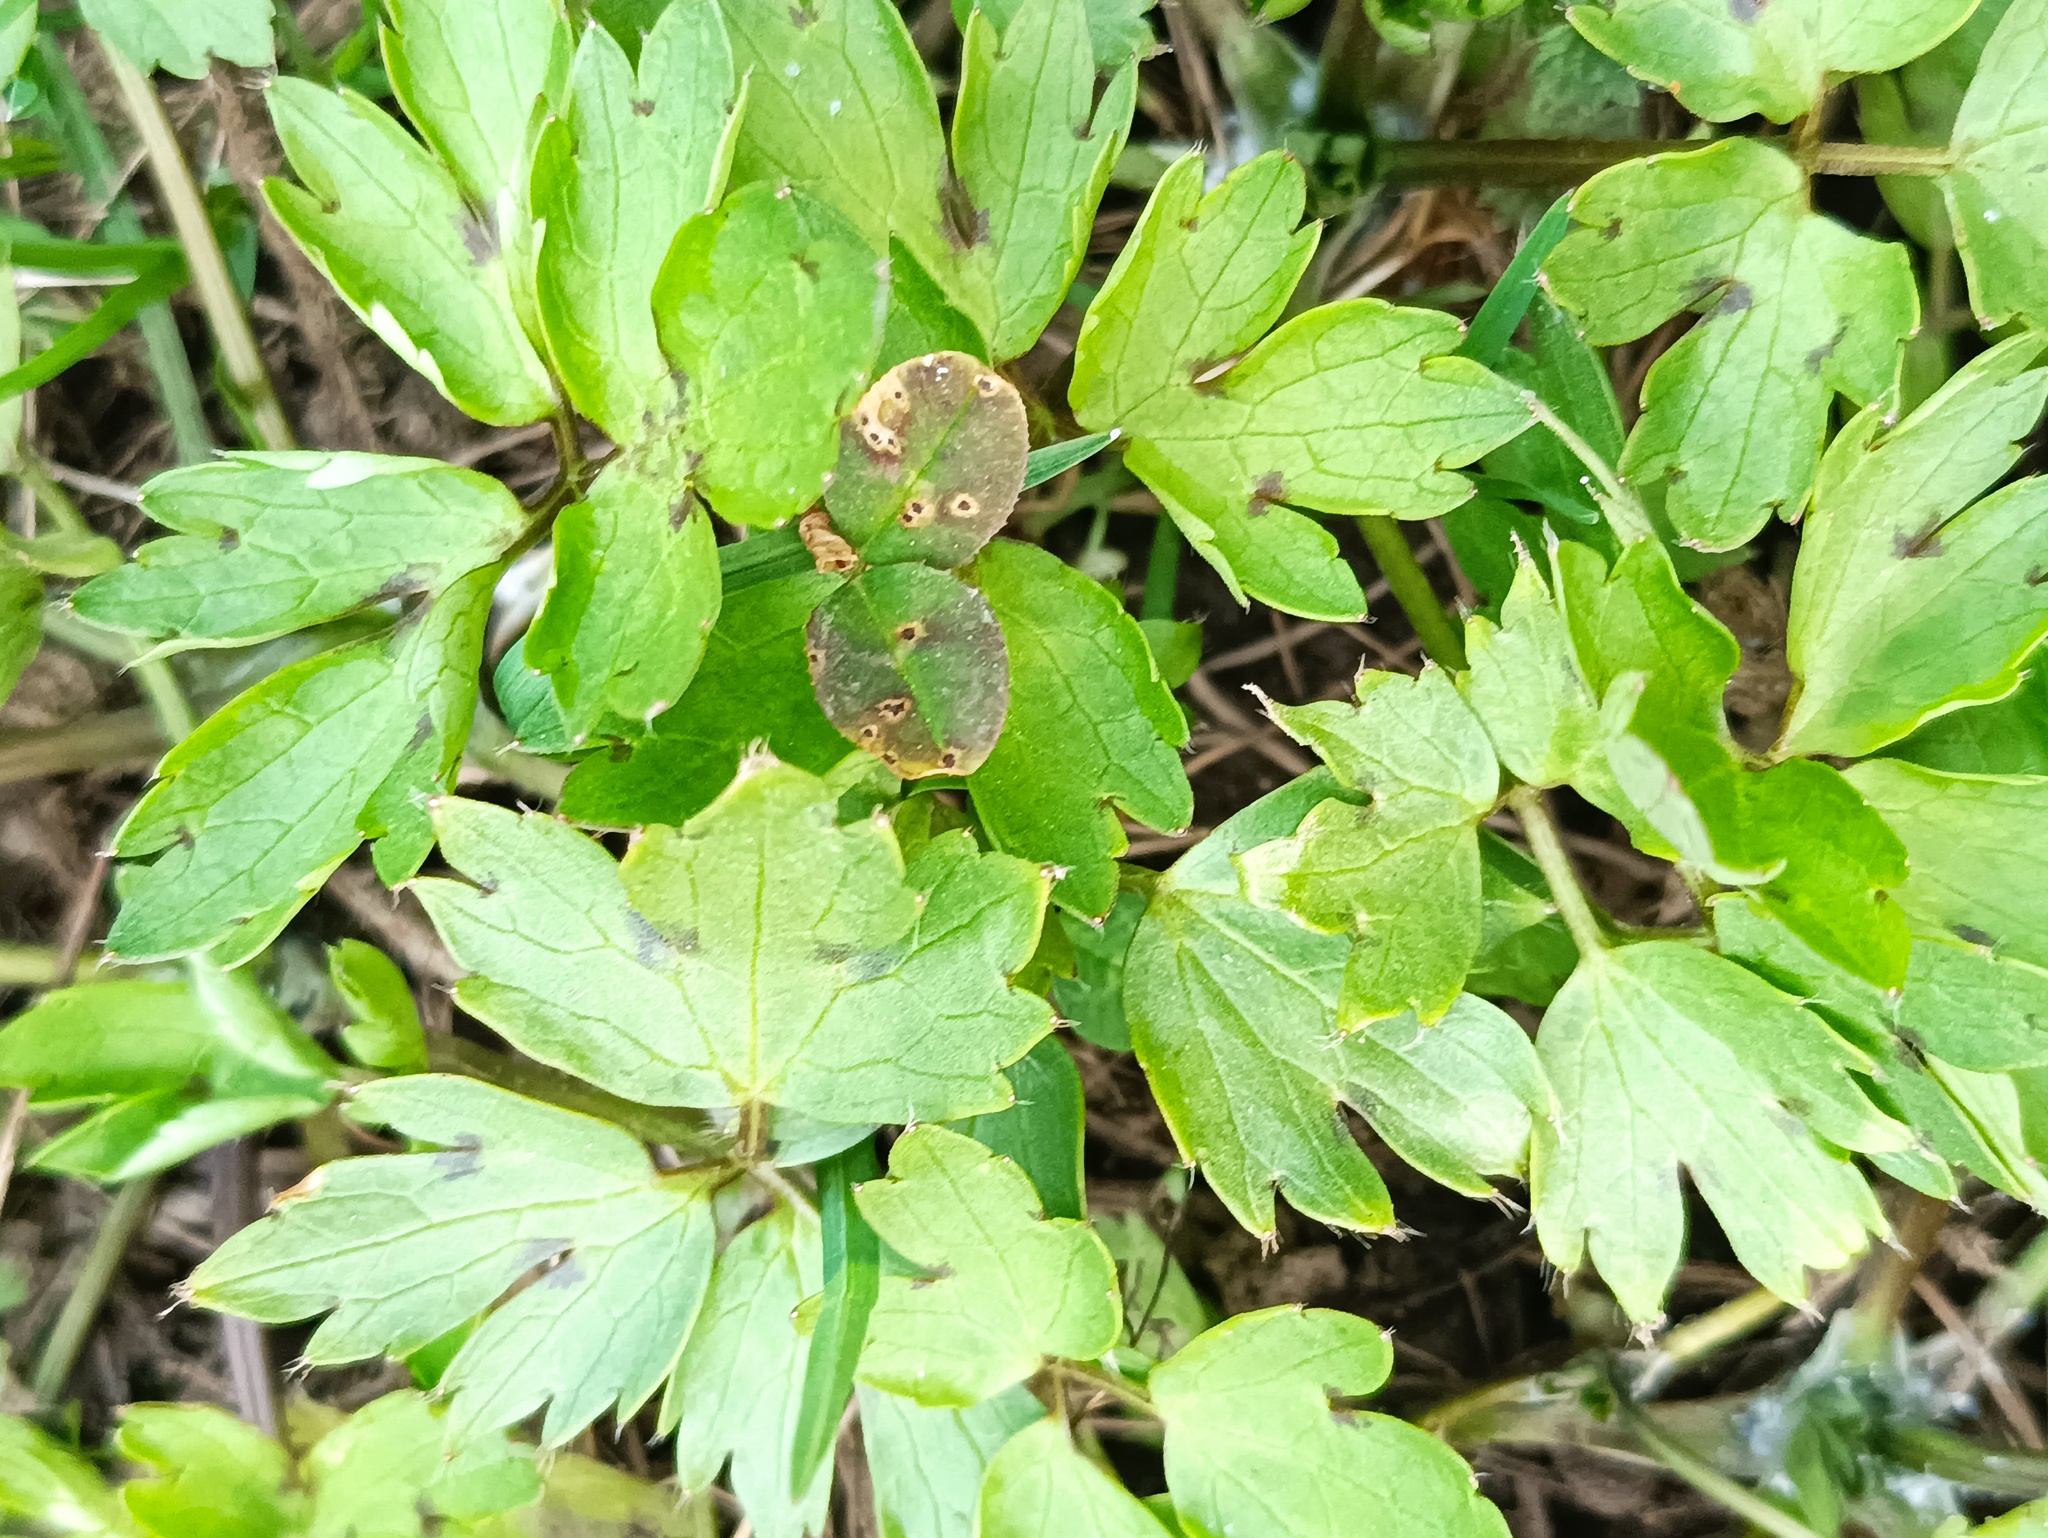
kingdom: Plantae
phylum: Tracheophyta
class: Magnoliopsida
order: Ranunculales
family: Ranunculaceae
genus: Ranunculus
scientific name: Ranunculus repens
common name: Creeping buttercup
